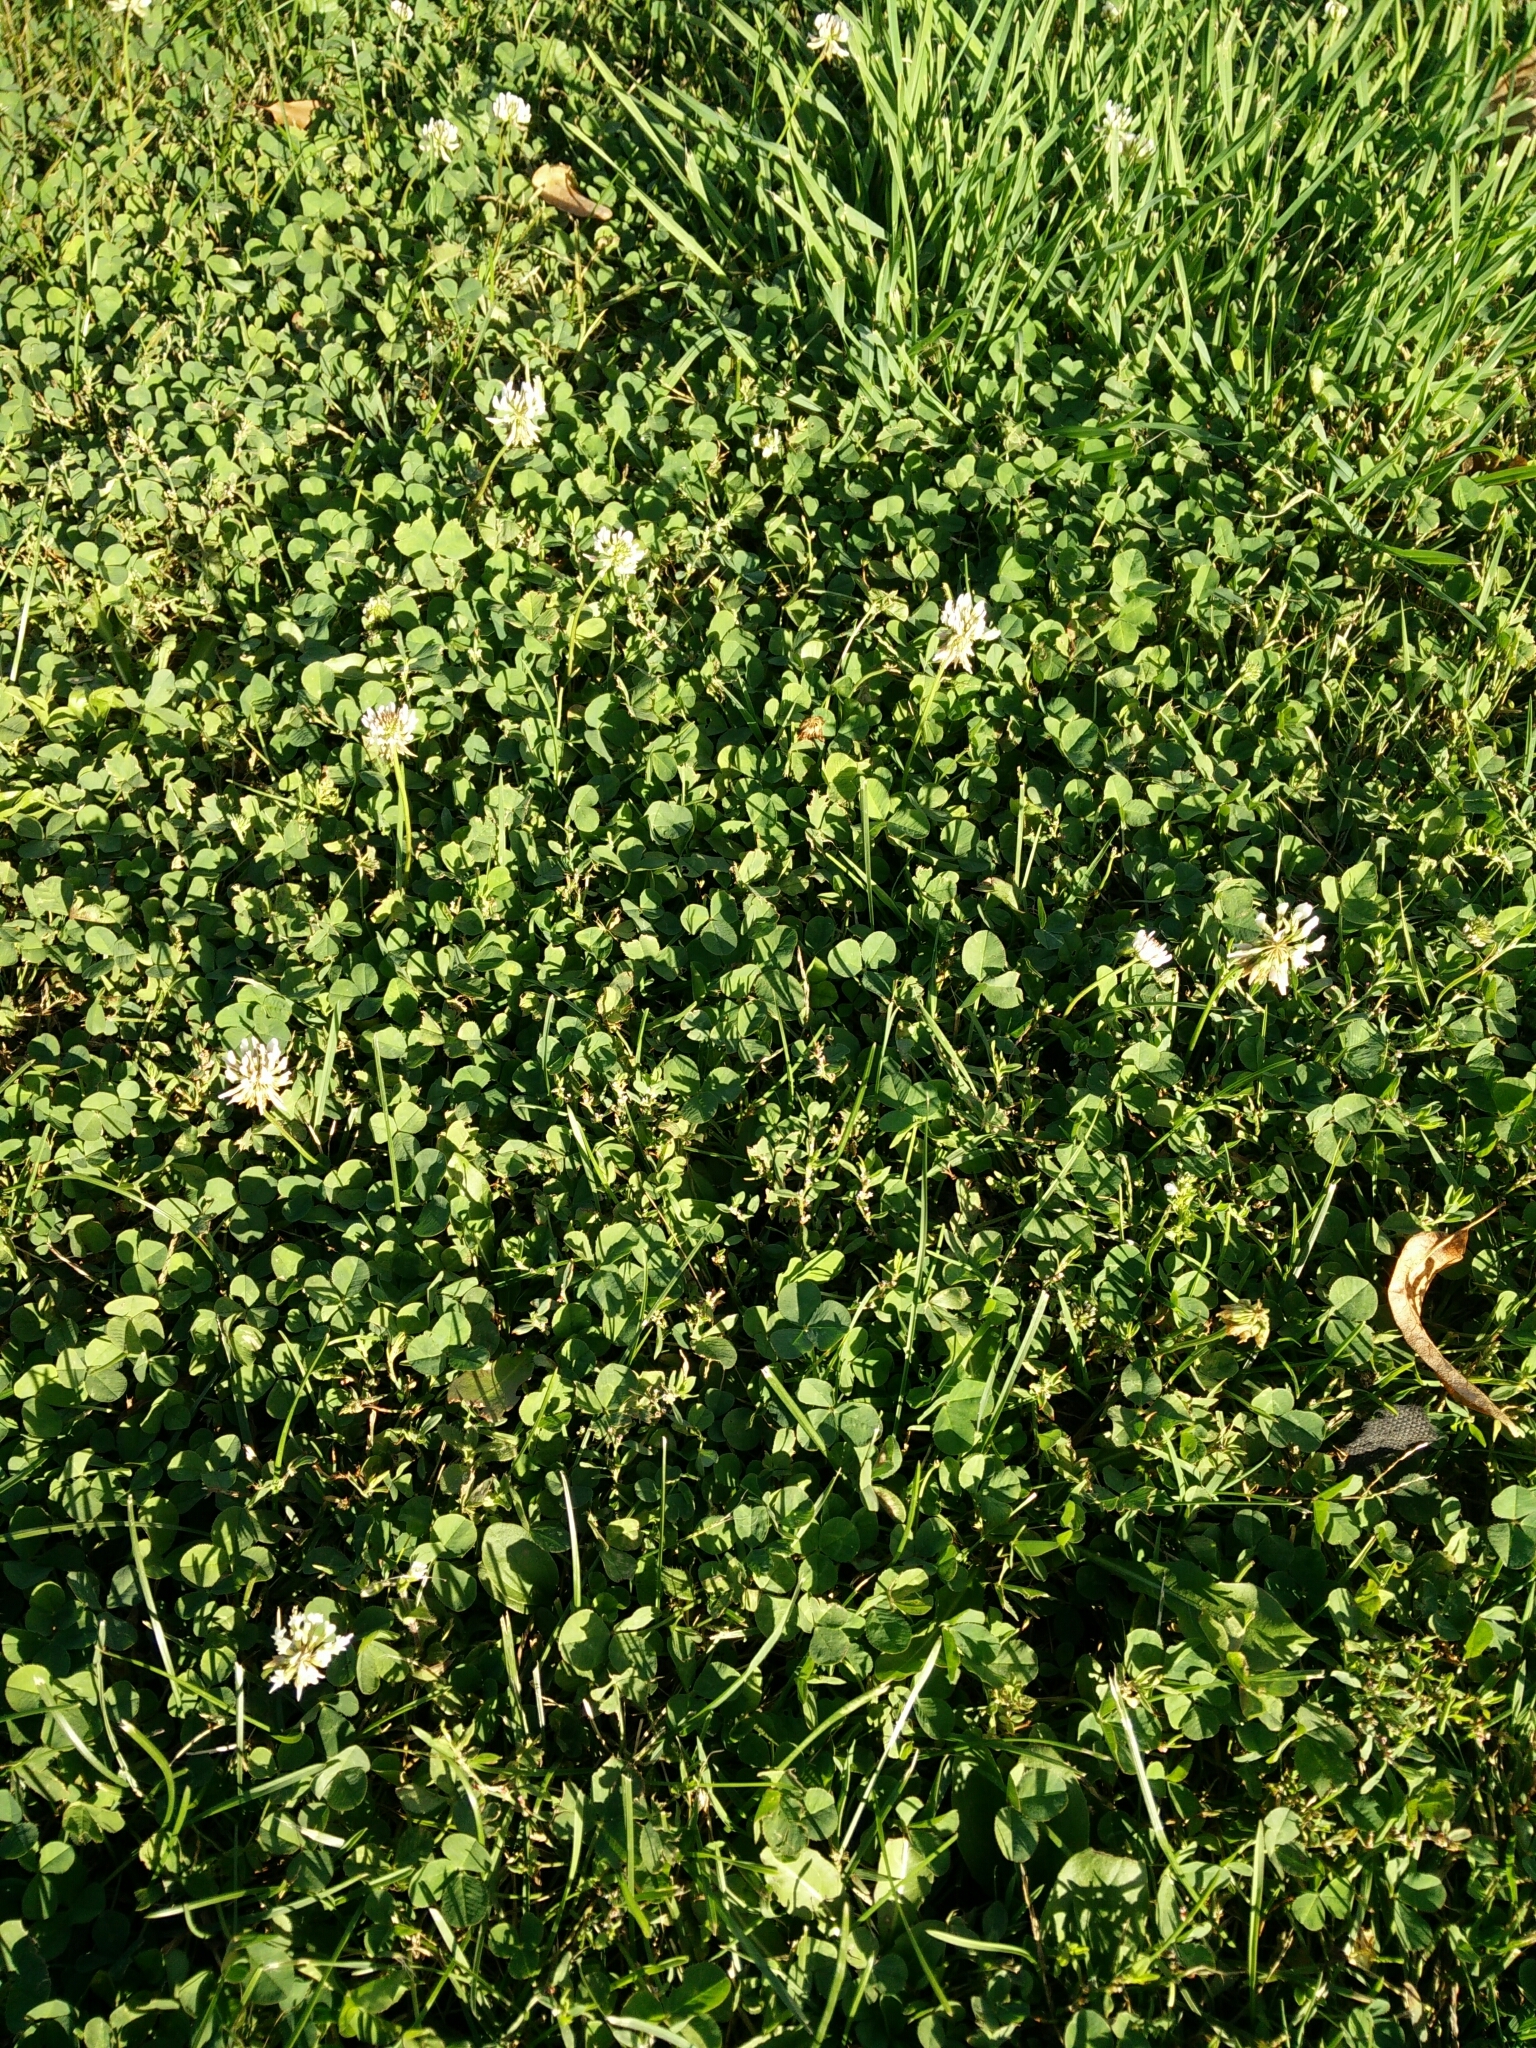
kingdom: Plantae
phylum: Tracheophyta
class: Magnoliopsida
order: Fabales
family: Fabaceae
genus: Trifolium
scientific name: Trifolium repens
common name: White clover
